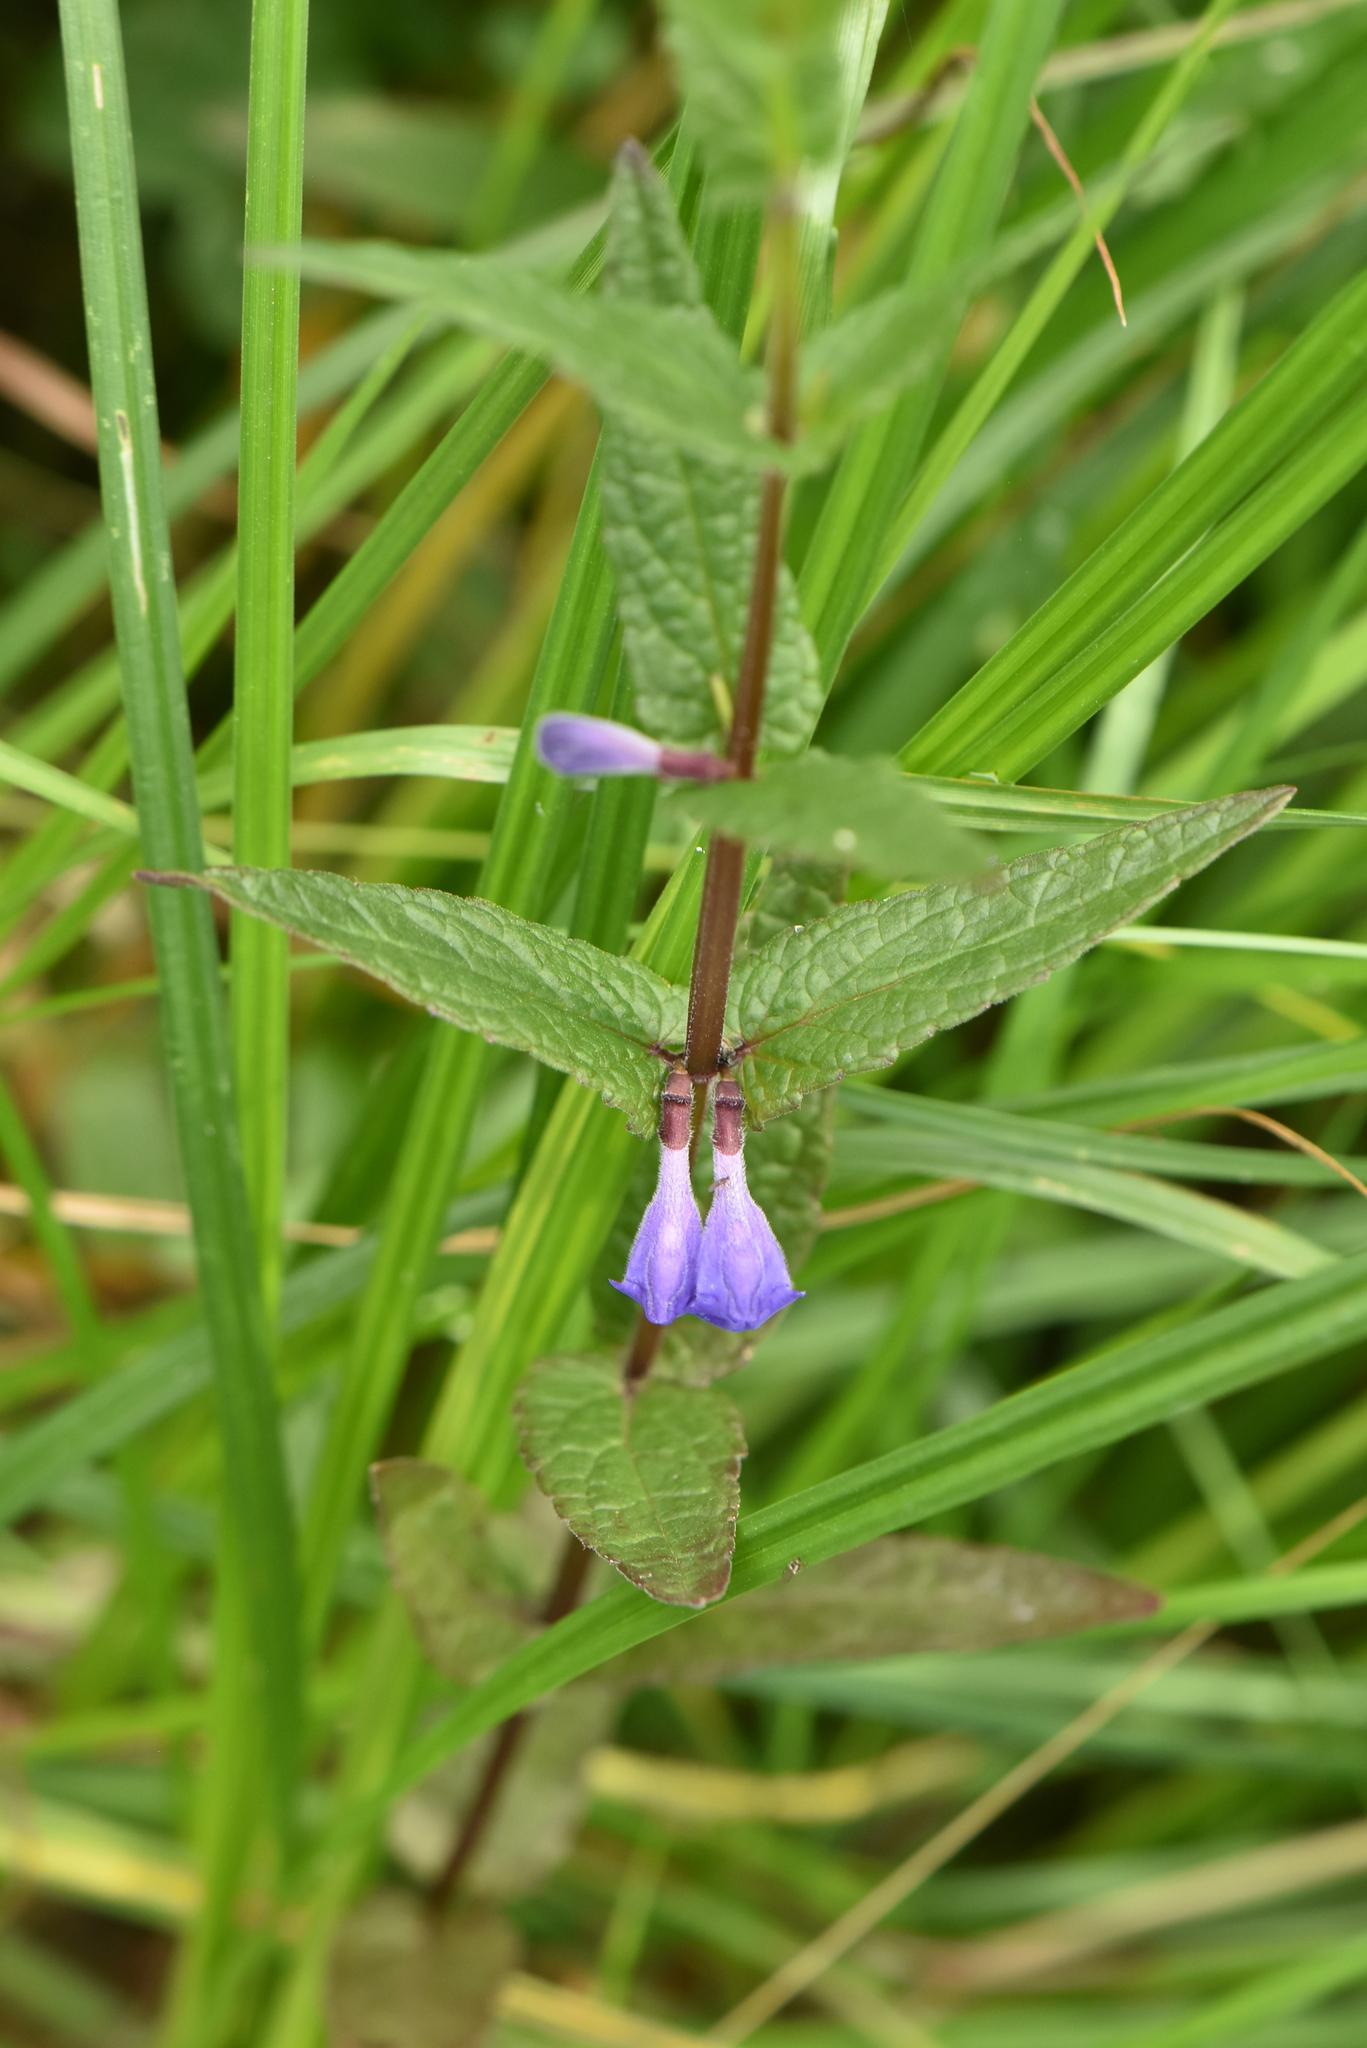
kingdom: Plantae
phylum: Tracheophyta
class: Magnoliopsida
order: Lamiales
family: Lamiaceae
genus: Scutellaria
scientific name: Scutellaria galericulata
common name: Skullcap
